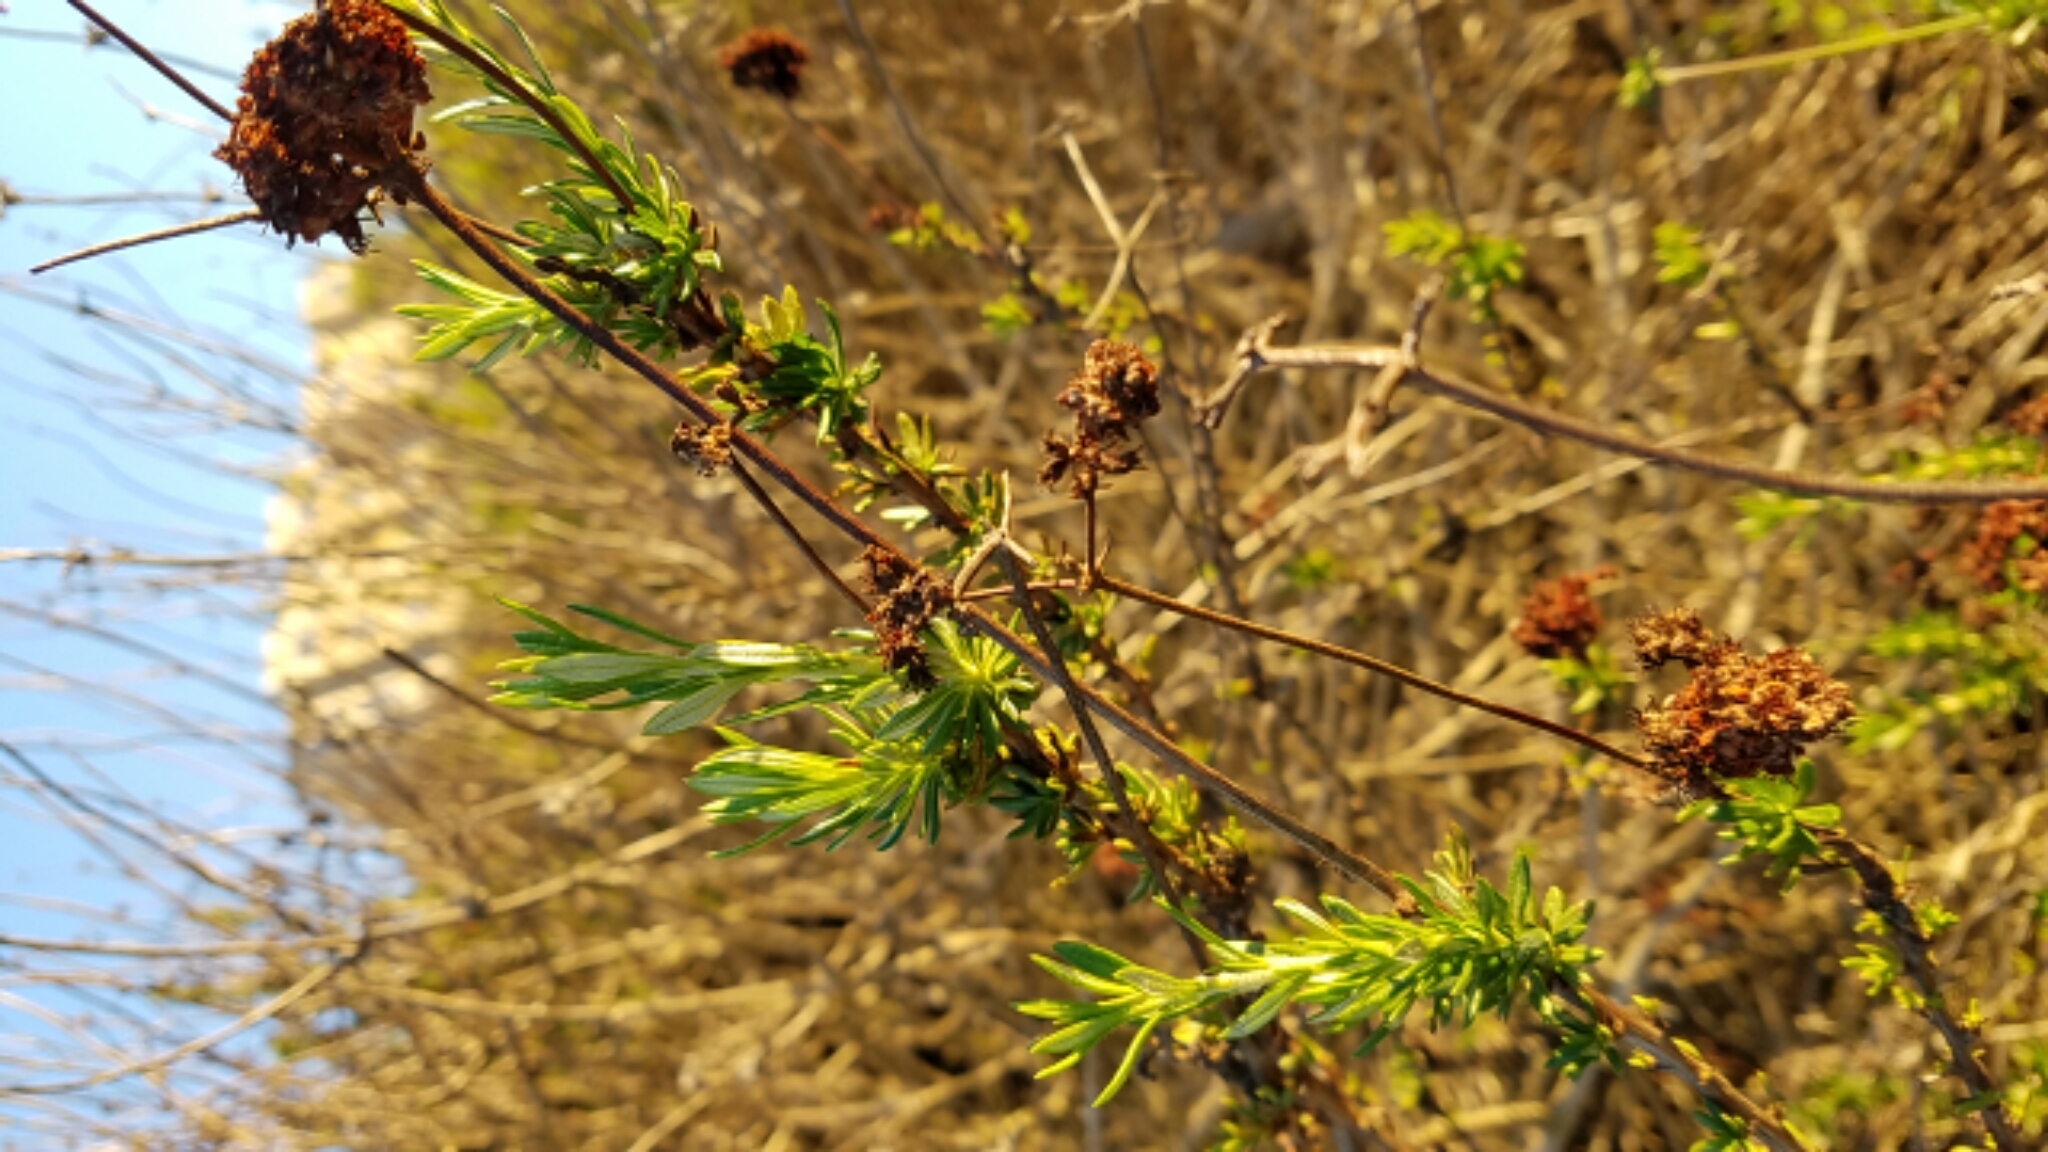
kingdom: Plantae
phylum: Tracheophyta
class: Magnoliopsida
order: Caryophyllales
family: Polygonaceae
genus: Eriogonum
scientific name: Eriogonum fasciculatum
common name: California wild buckwheat
